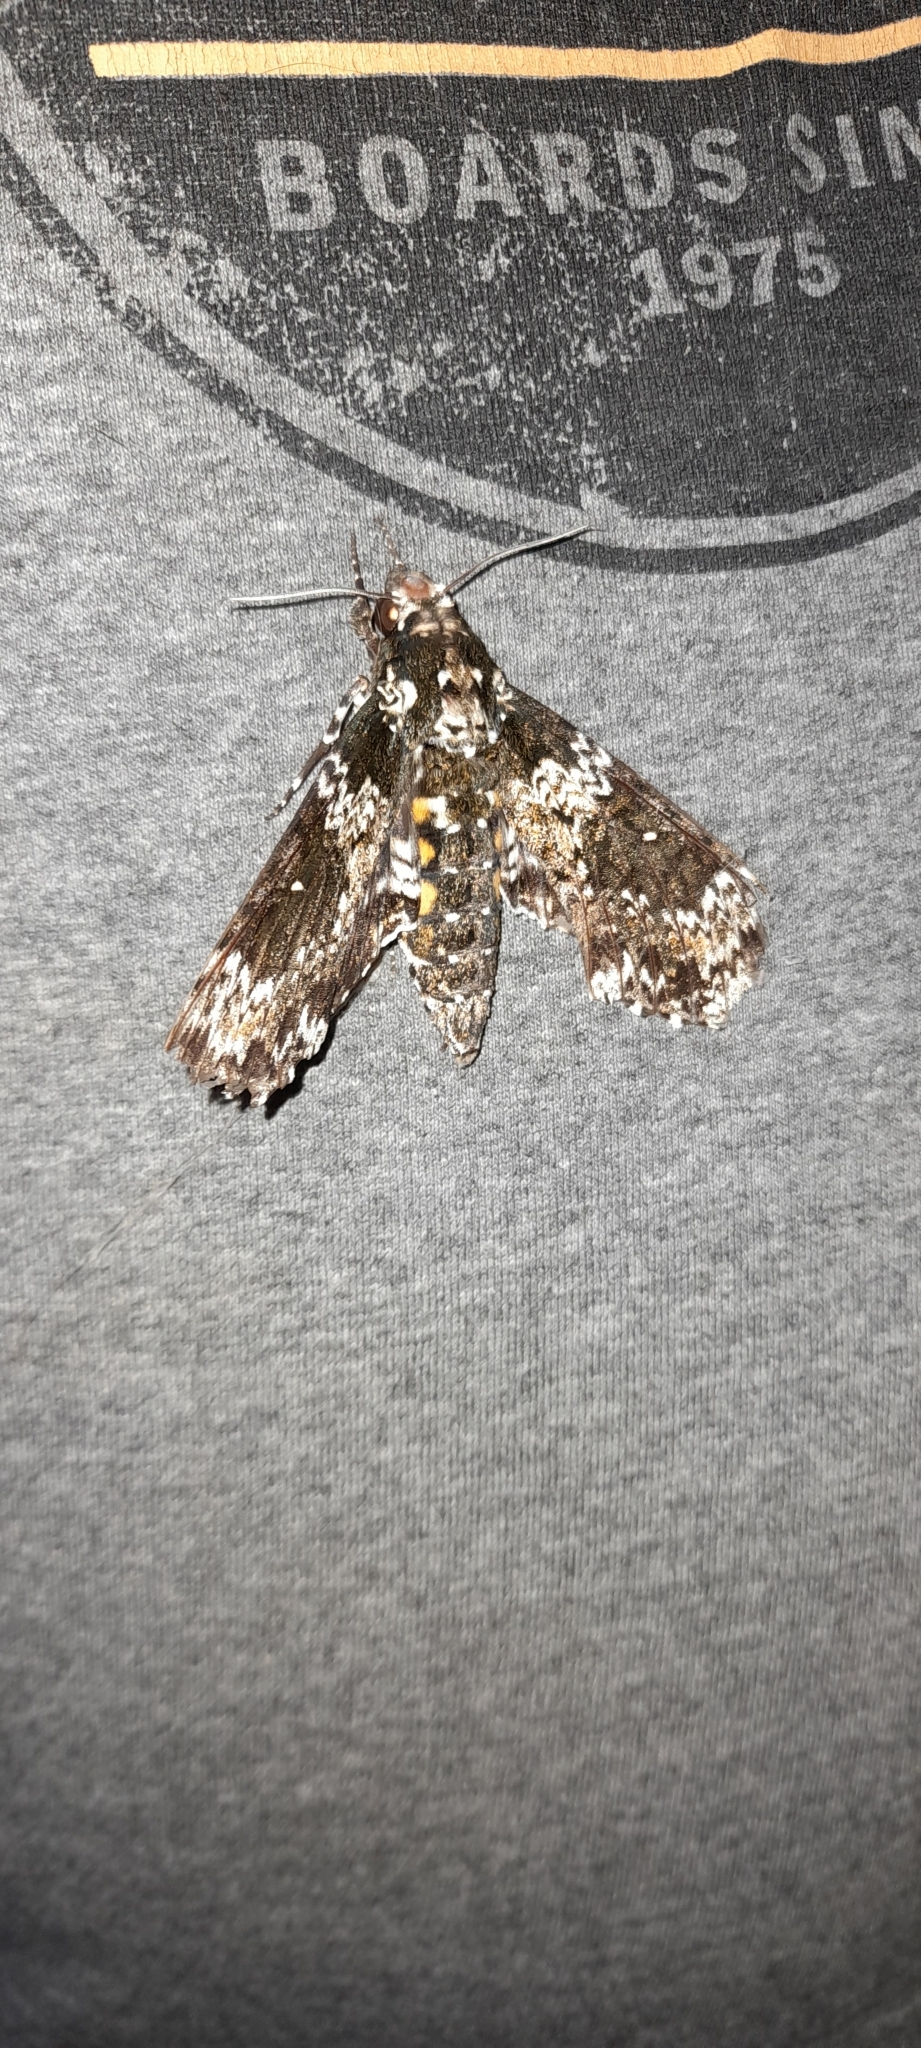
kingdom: Animalia
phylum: Arthropoda
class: Insecta
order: Lepidoptera
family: Sphingidae
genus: Manduca
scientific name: Manduca rustica
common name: Rustic sphinx
